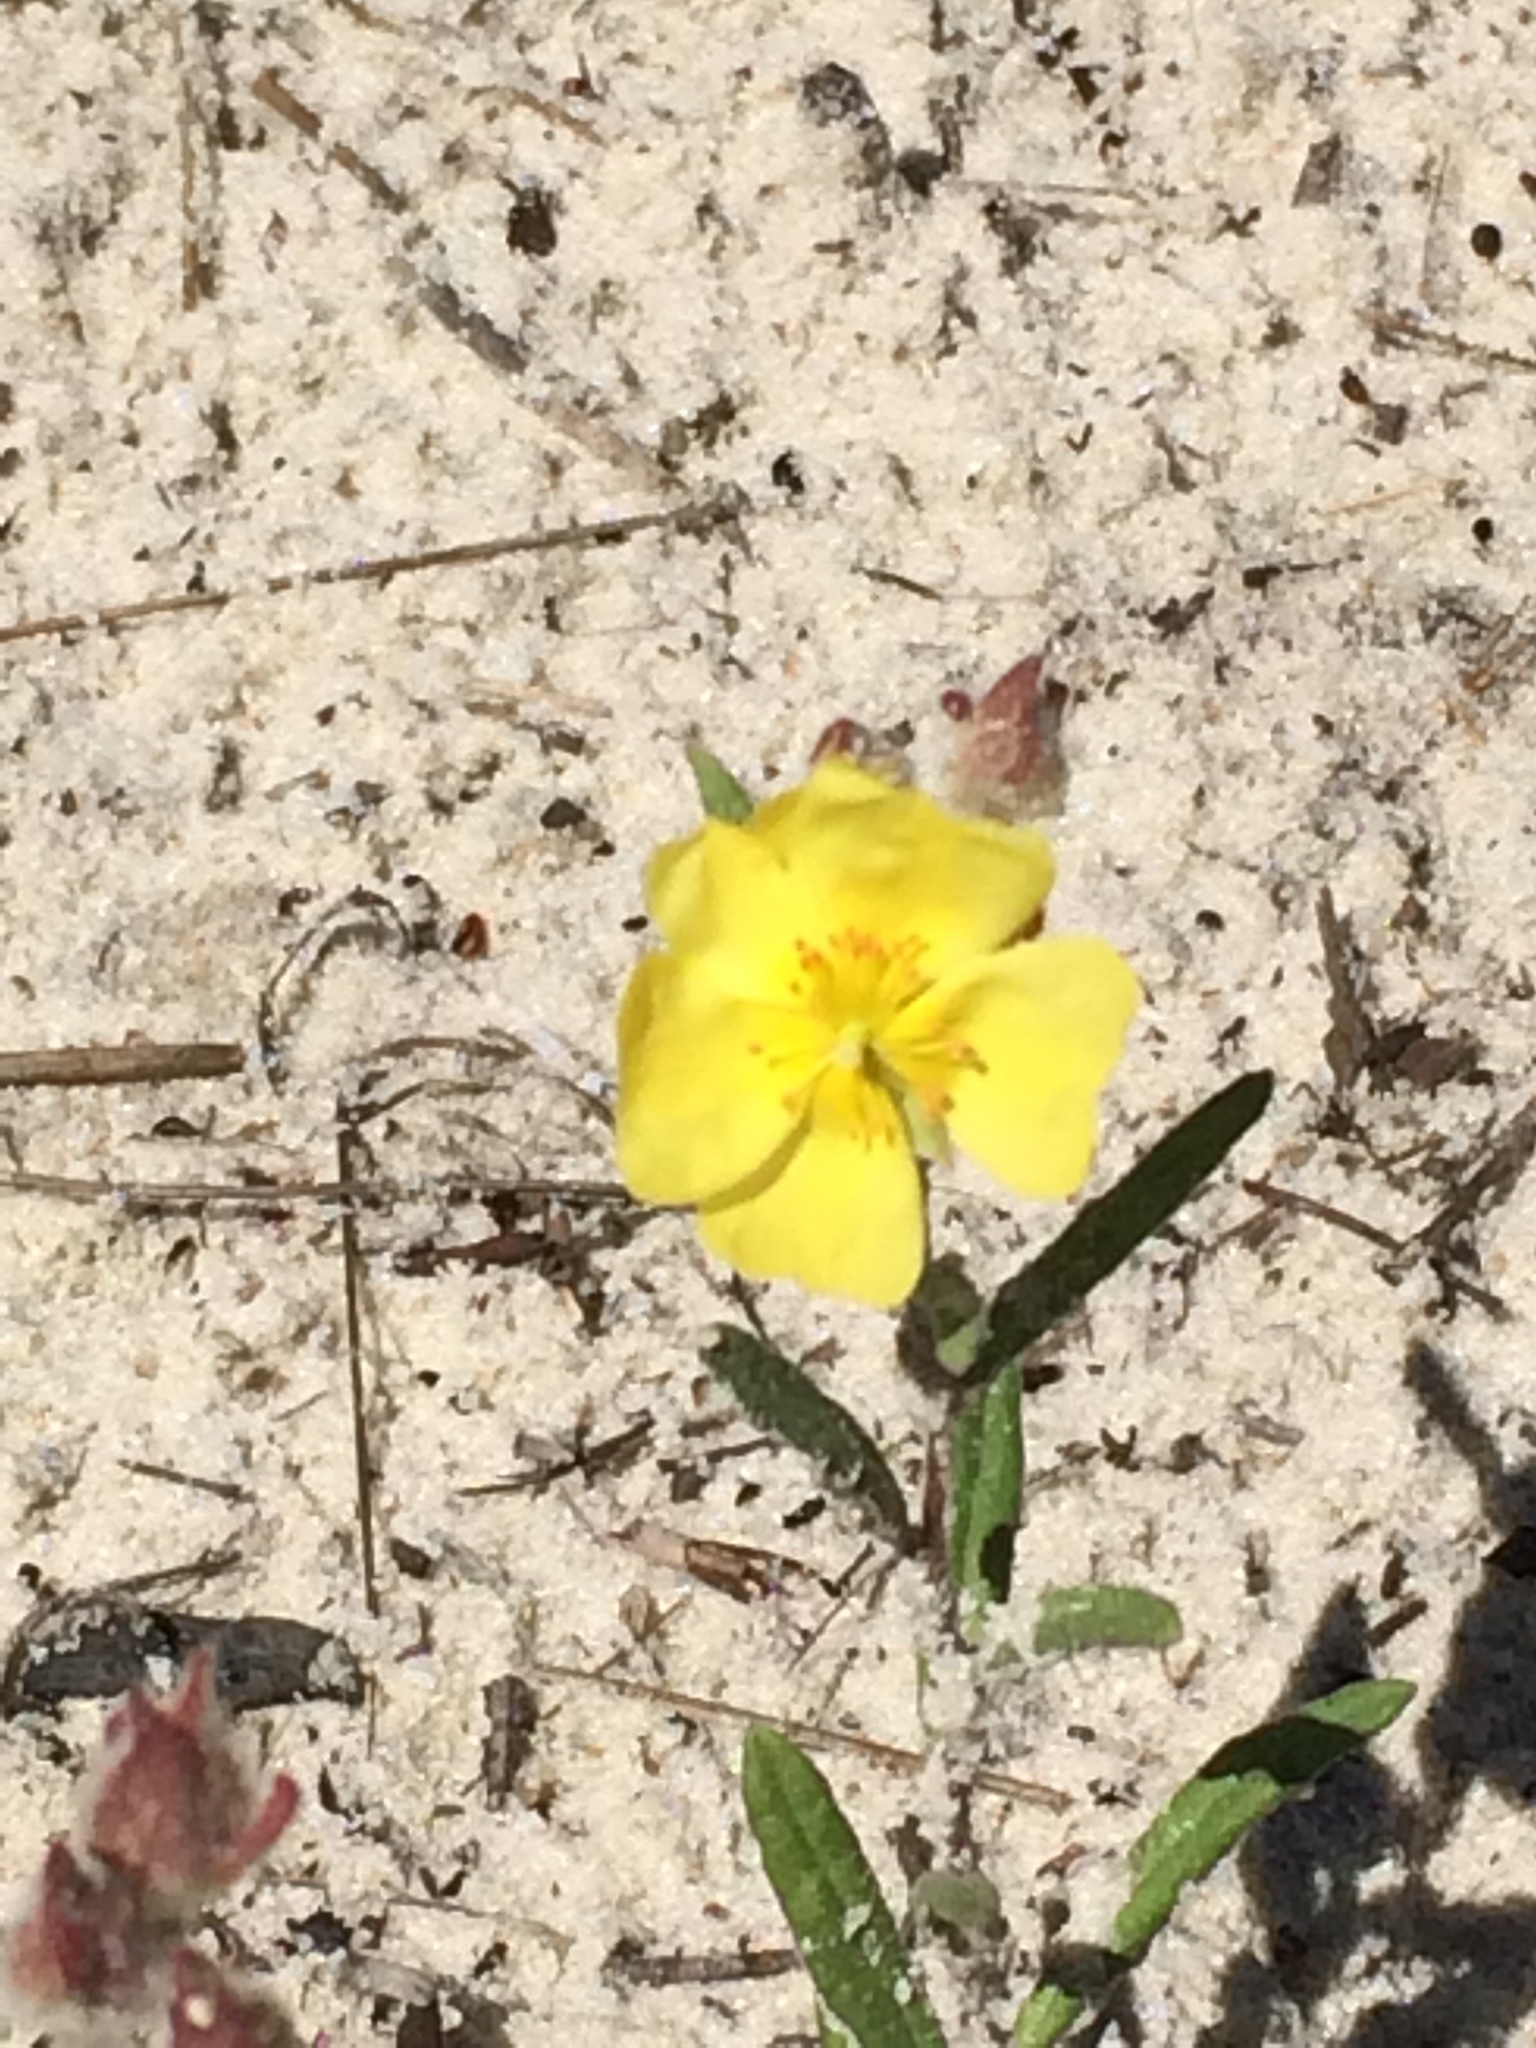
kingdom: Plantae
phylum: Tracheophyta
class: Magnoliopsida
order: Malvales
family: Cistaceae
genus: Crocanthemum
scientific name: Crocanthemum corymbosum
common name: Pinebarren sun-rose
